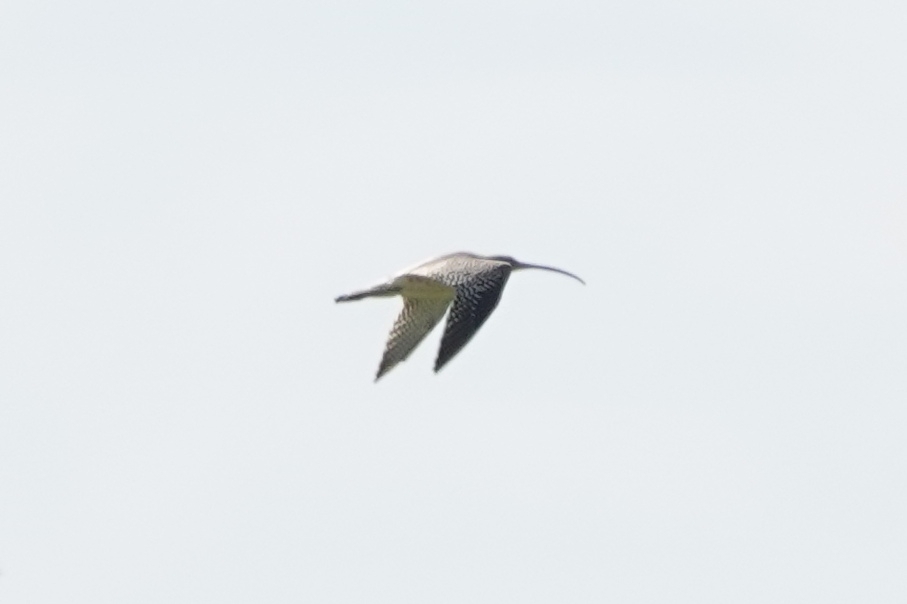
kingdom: Animalia
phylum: Chordata
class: Aves
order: Charadriiformes
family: Scolopacidae
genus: Numenius
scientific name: Numenius arquata
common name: Eurasian curlew
